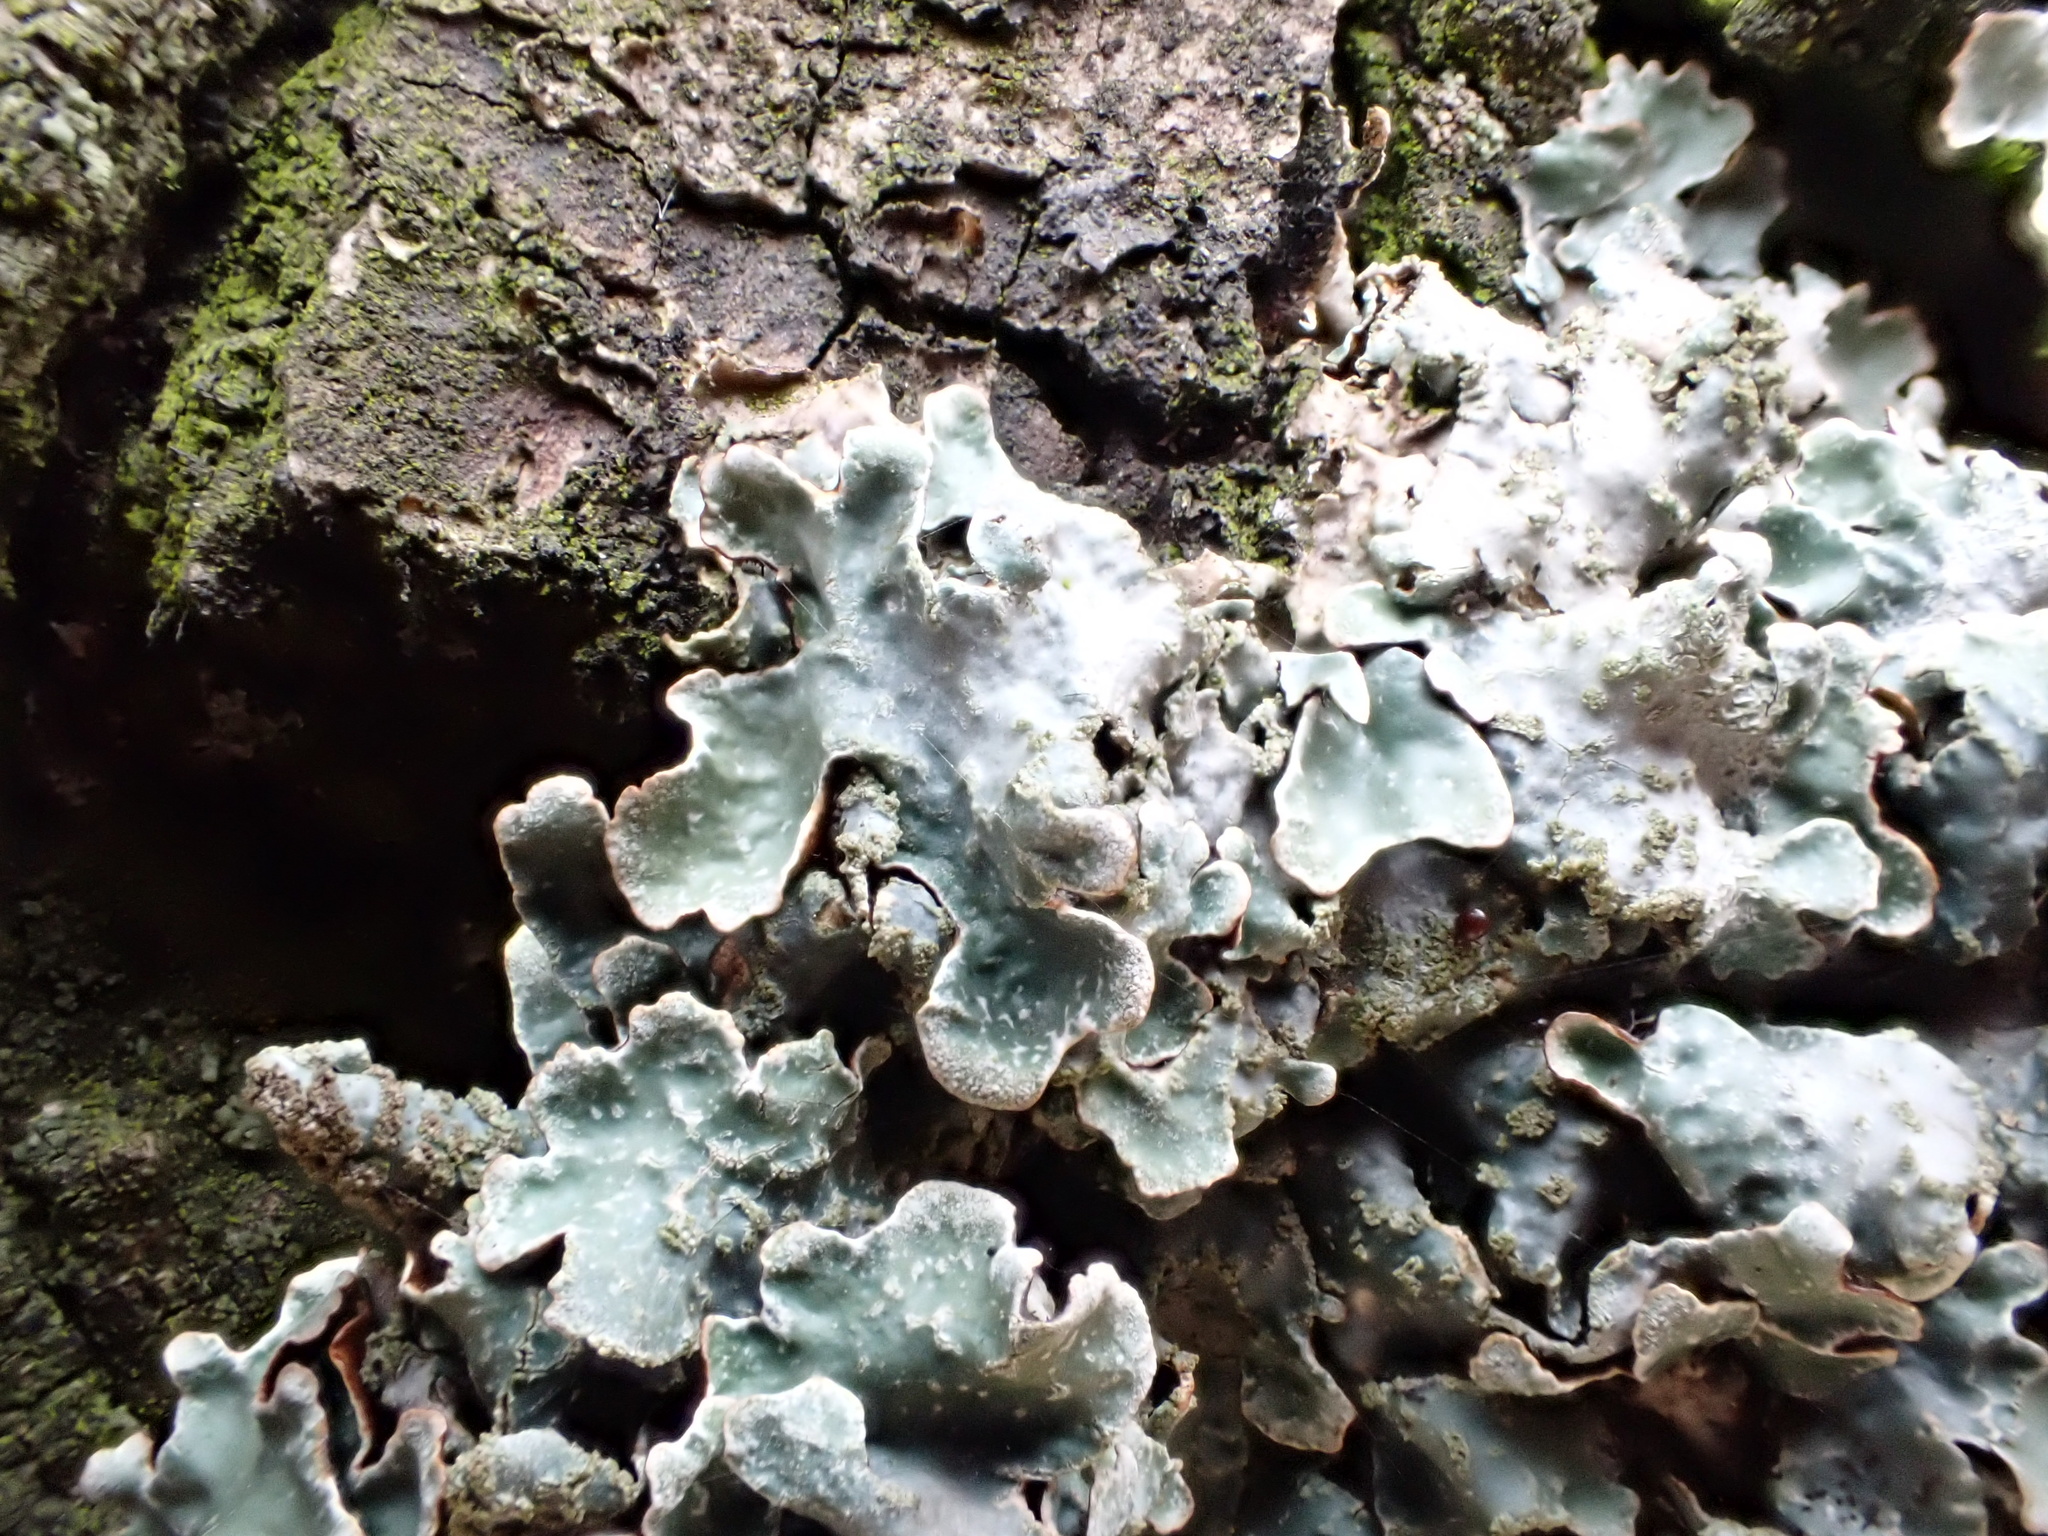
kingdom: Fungi
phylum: Ascomycota
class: Lecanoromycetes
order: Lecanorales
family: Parmeliaceae
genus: Parmelia
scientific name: Parmelia sulcata
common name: Netted shield lichen
